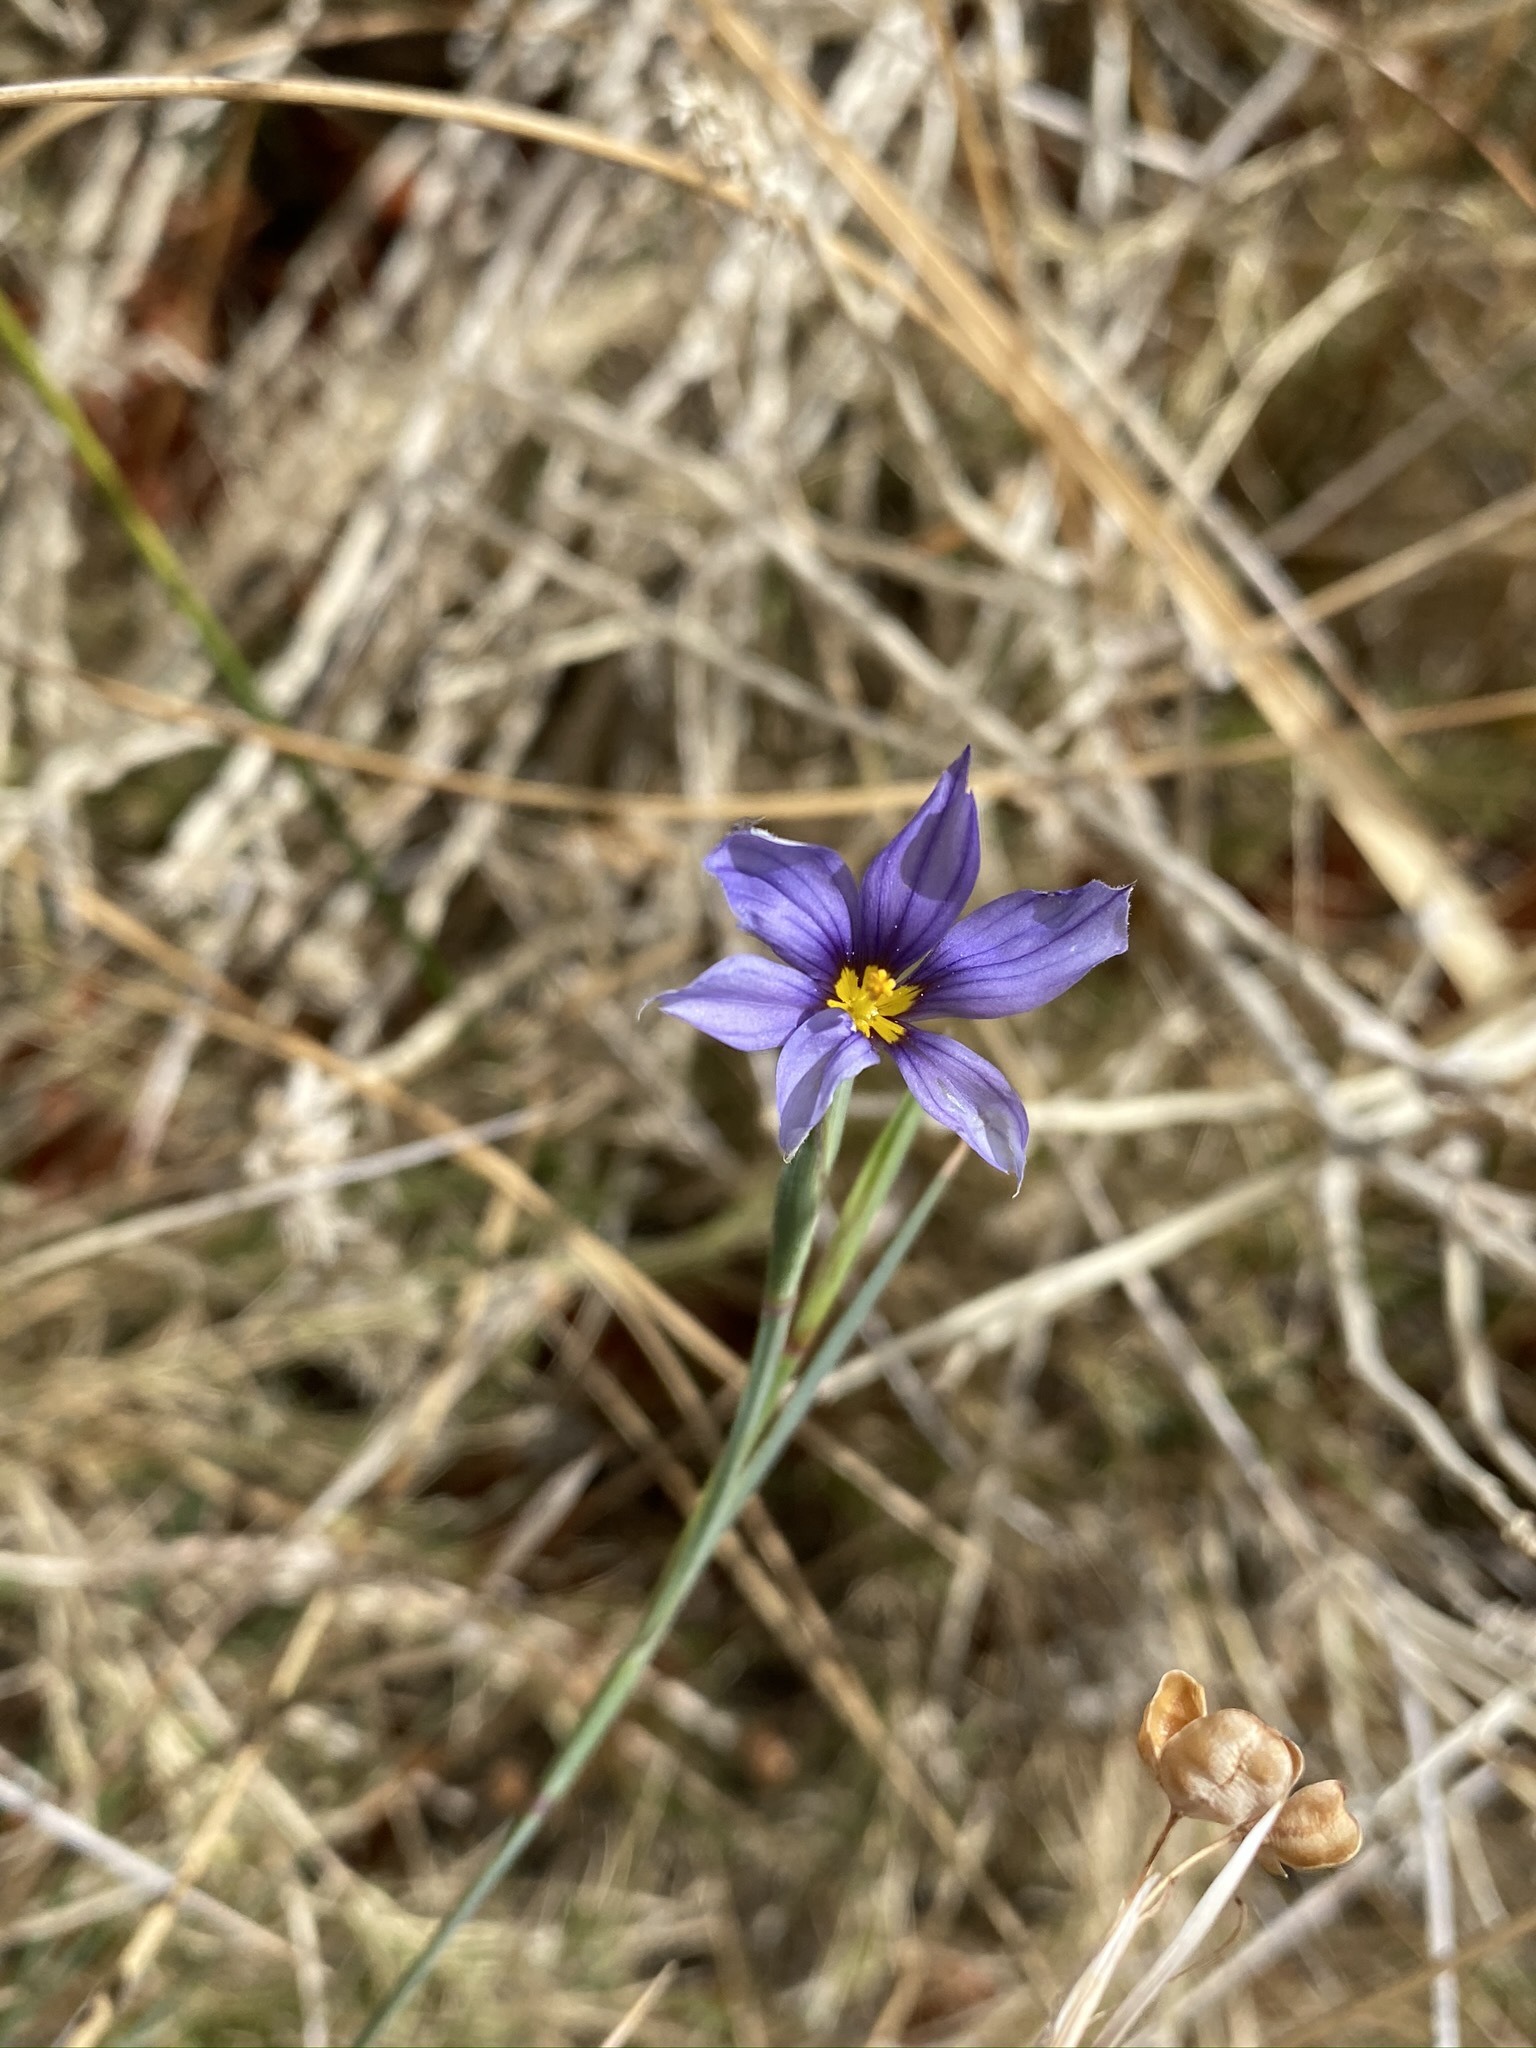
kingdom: Plantae
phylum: Tracheophyta
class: Liliopsida
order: Asparagales
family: Iridaceae
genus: Sisyrinchium
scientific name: Sisyrinchium funereum
